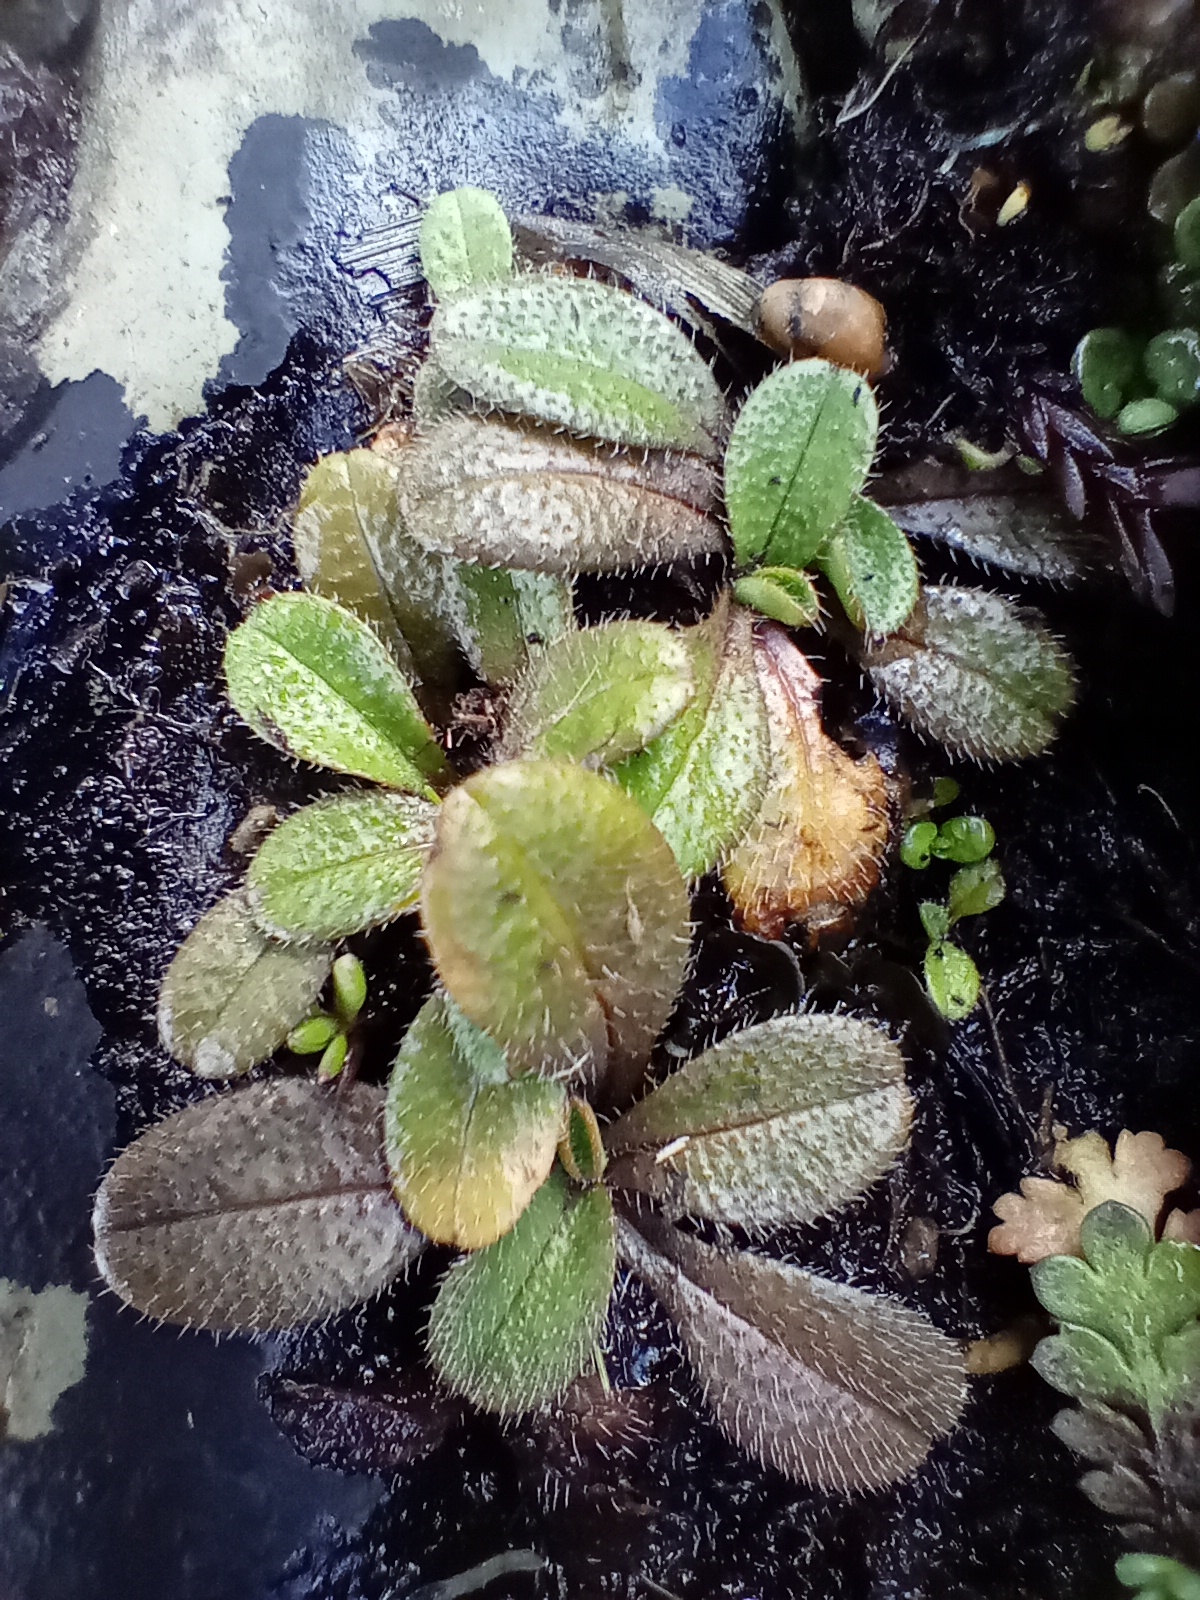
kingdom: Plantae
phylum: Tracheophyta
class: Magnoliopsida
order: Boraginales
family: Boraginaceae
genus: Myosotis
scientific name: Myosotis antarctica
